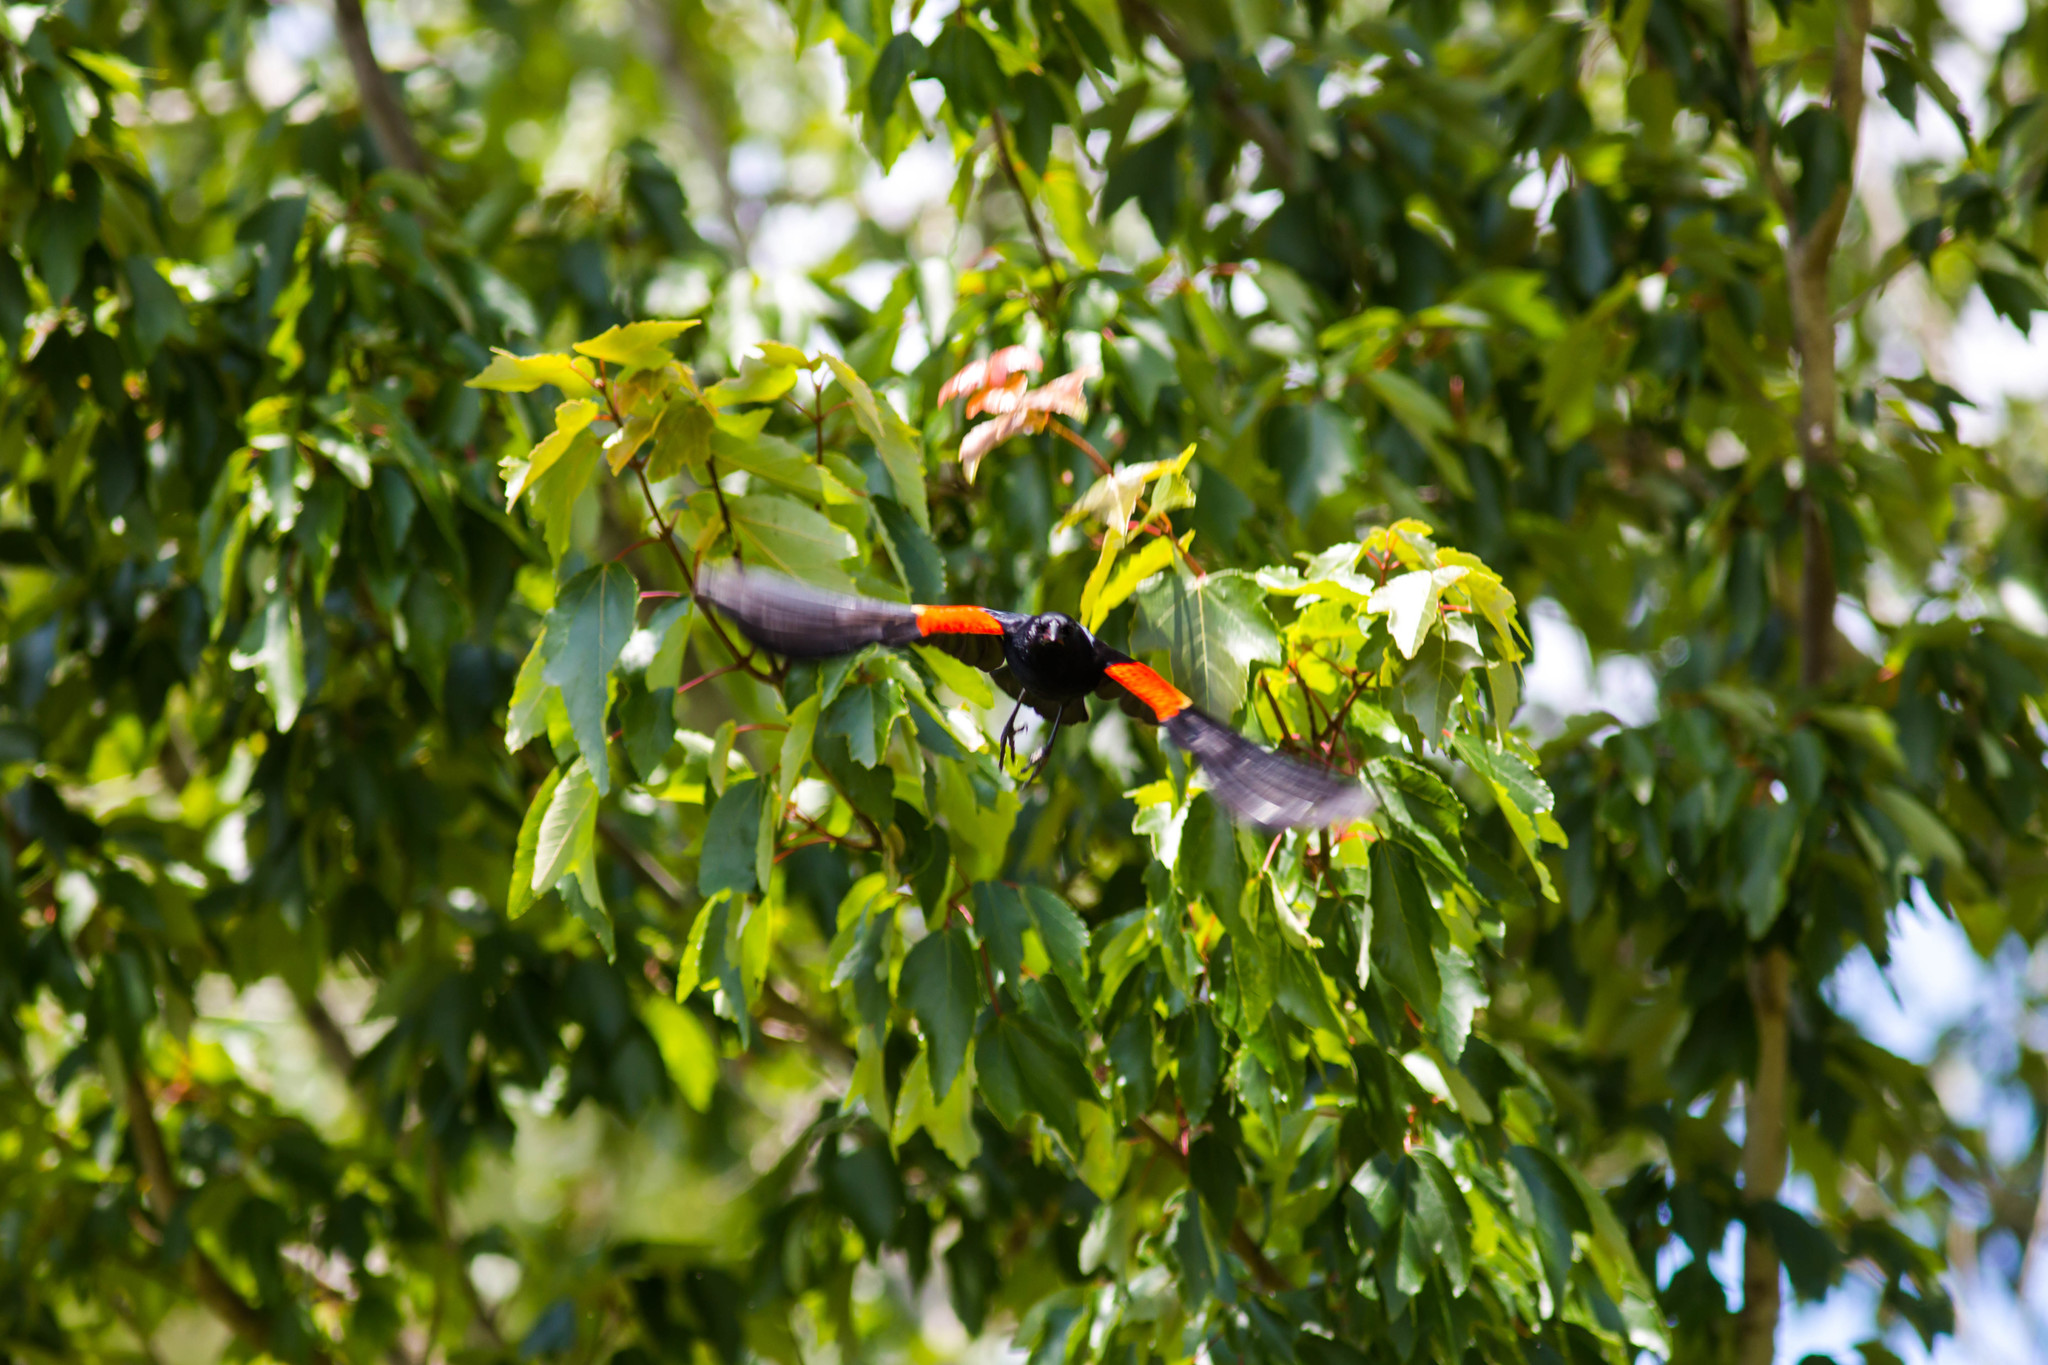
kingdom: Animalia
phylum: Chordata
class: Aves
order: Passeriformes
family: Icteridae
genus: Agelaius
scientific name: Agelaius phoeniceus
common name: Red-winged blackbird
